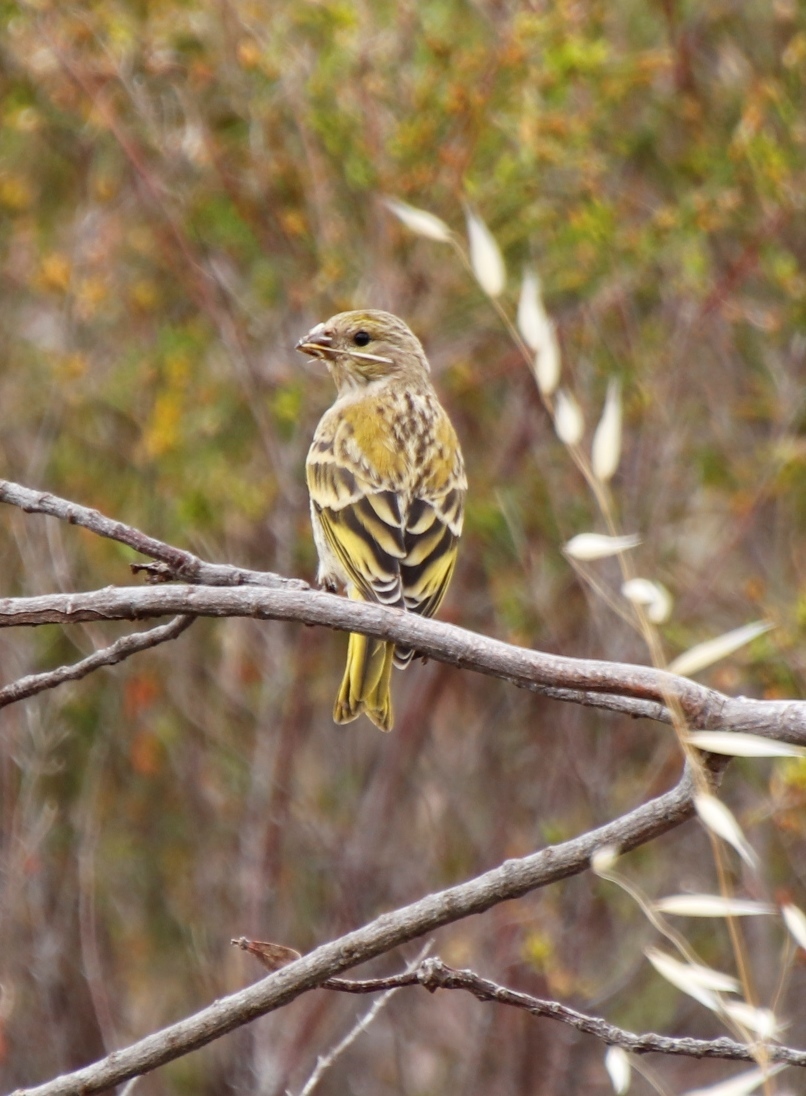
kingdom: Animalia
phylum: Chordata
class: Aves
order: Passeriformes
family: Fringillidae
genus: Serinus
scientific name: Serinus canicollis
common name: Cape canary
